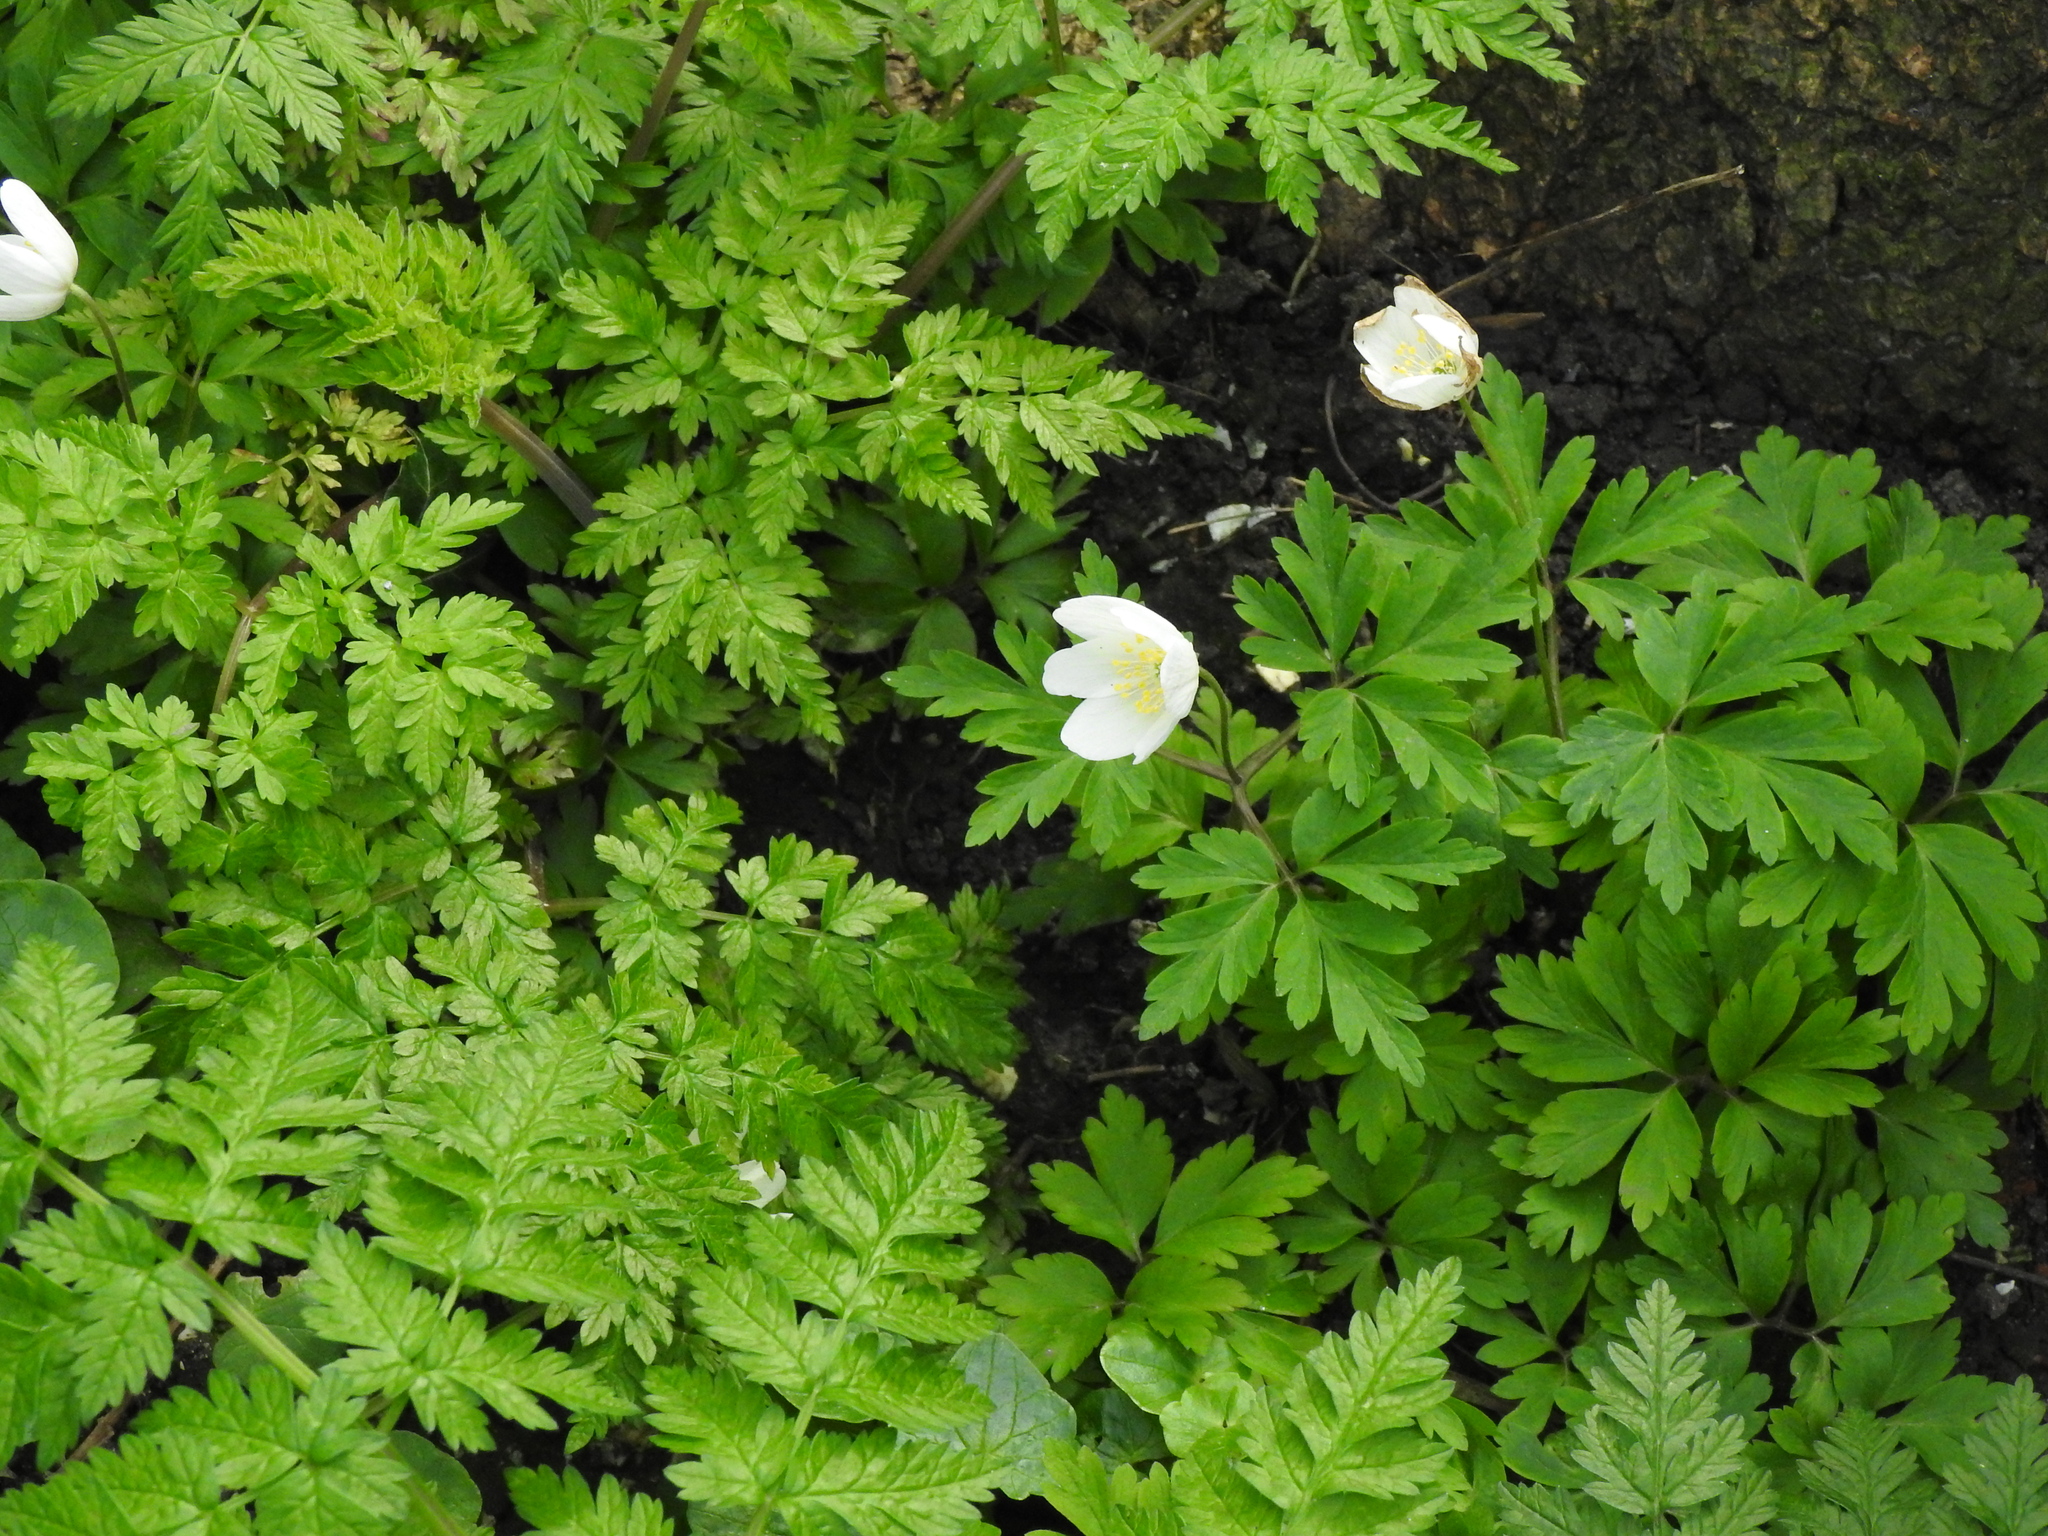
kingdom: Plantae
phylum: Tracheophyta
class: Magnoliopsida
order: Ranunculales
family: Ranunculaceae
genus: Anemone
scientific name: Anemone nemorosa
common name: Wood anemone
